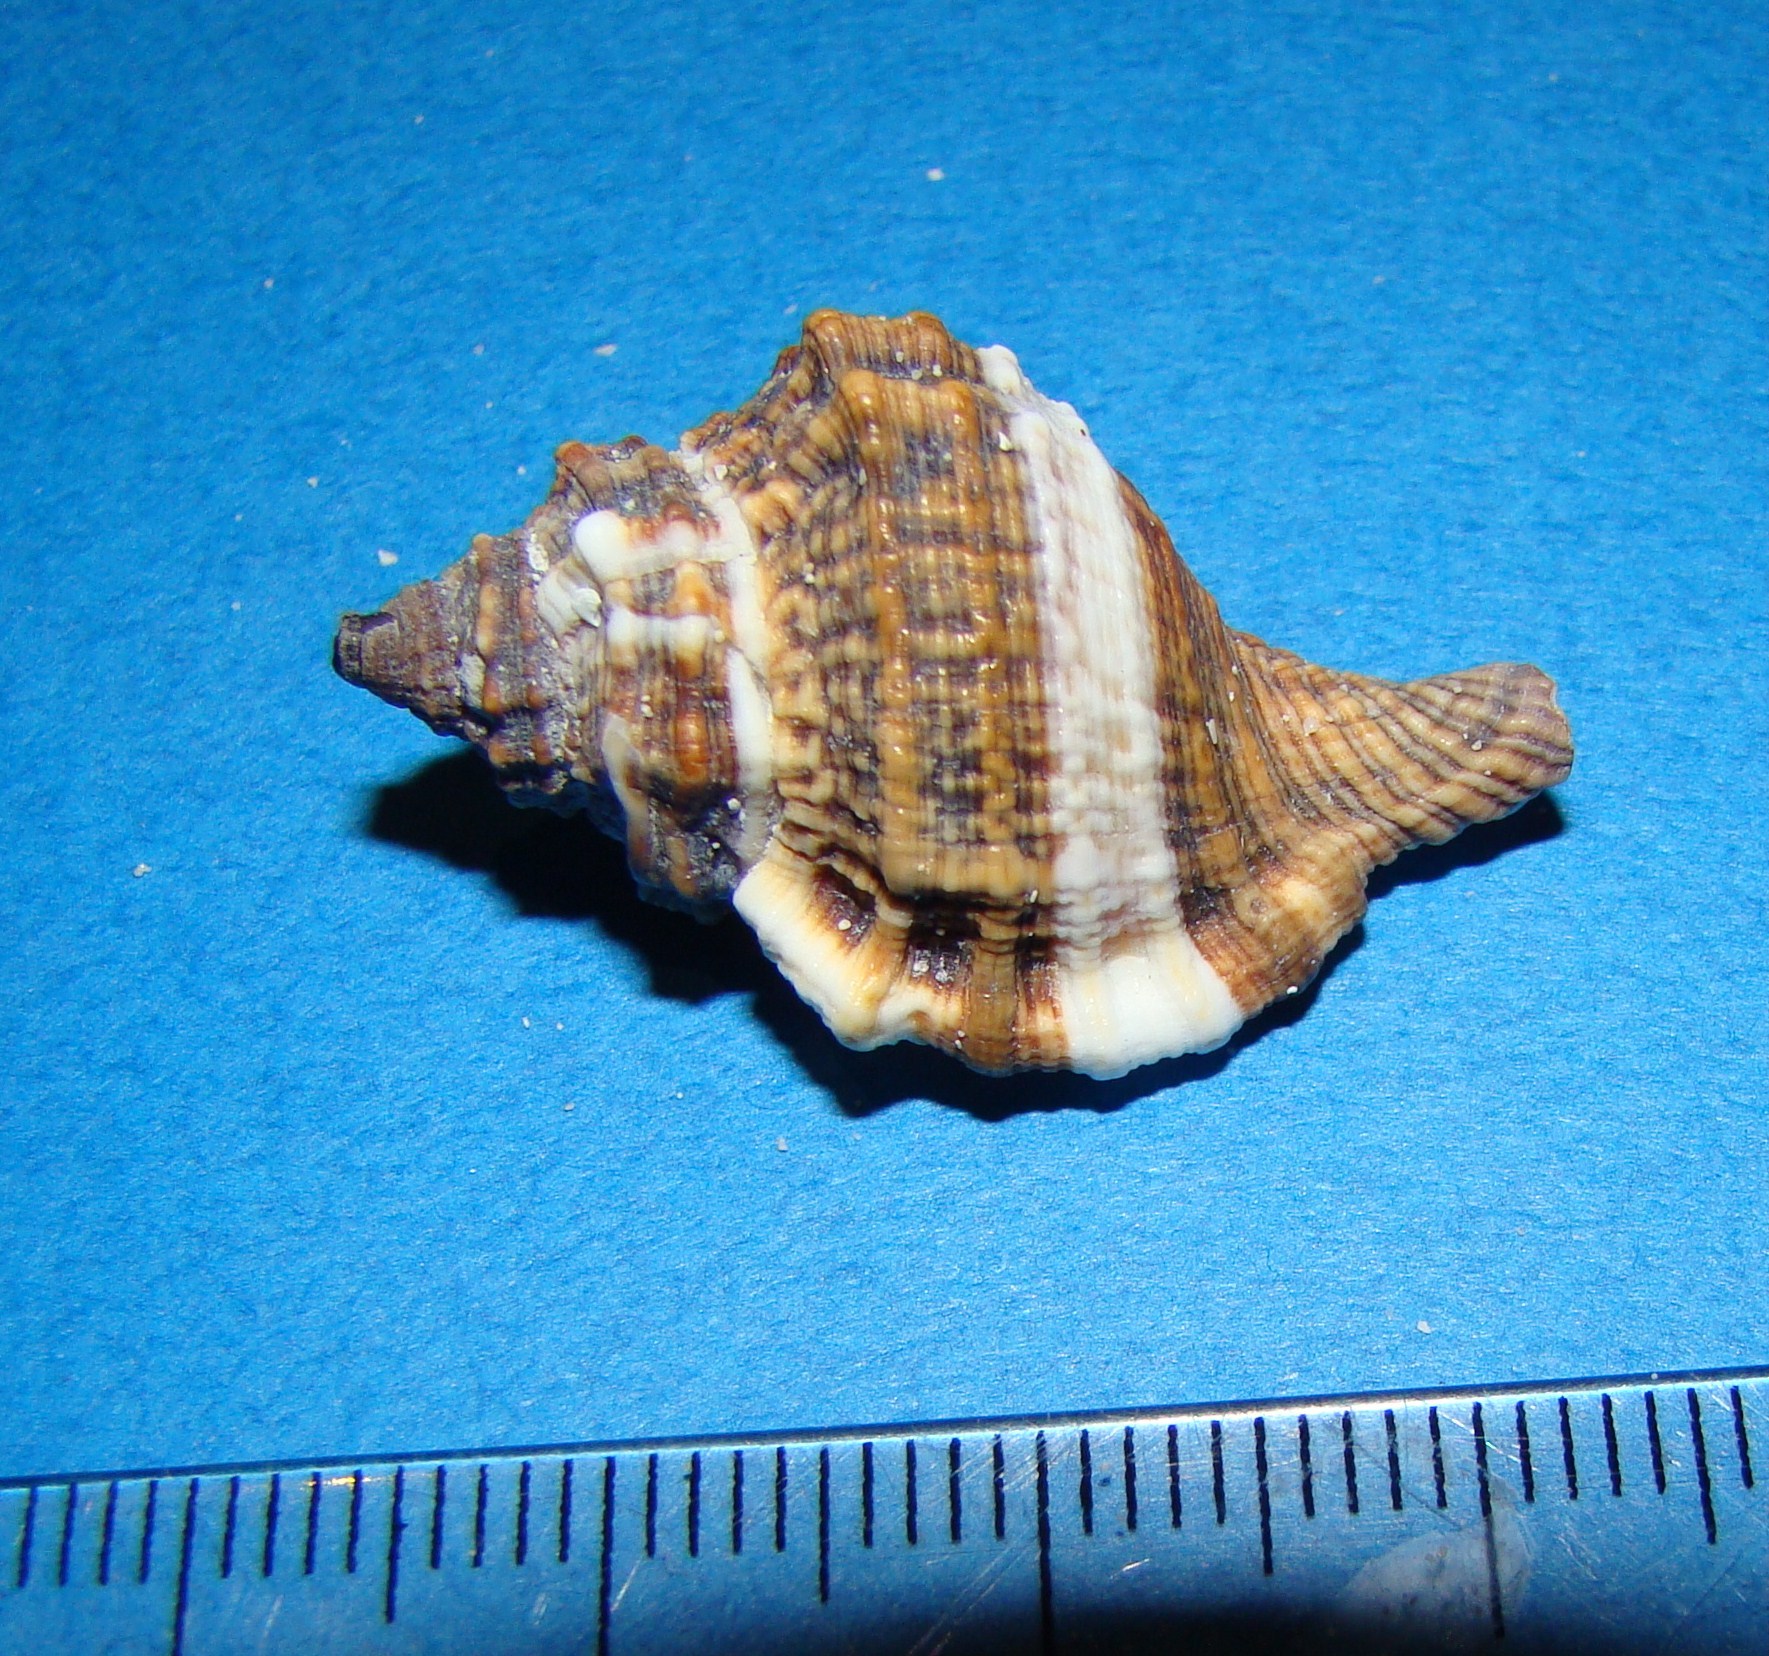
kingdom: Animalia
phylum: Mollusca
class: Gastropoda
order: Littorinimorpha
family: Cymatiidae
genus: Gutturnium
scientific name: Gutturnium muricinum
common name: Knobbed triton
